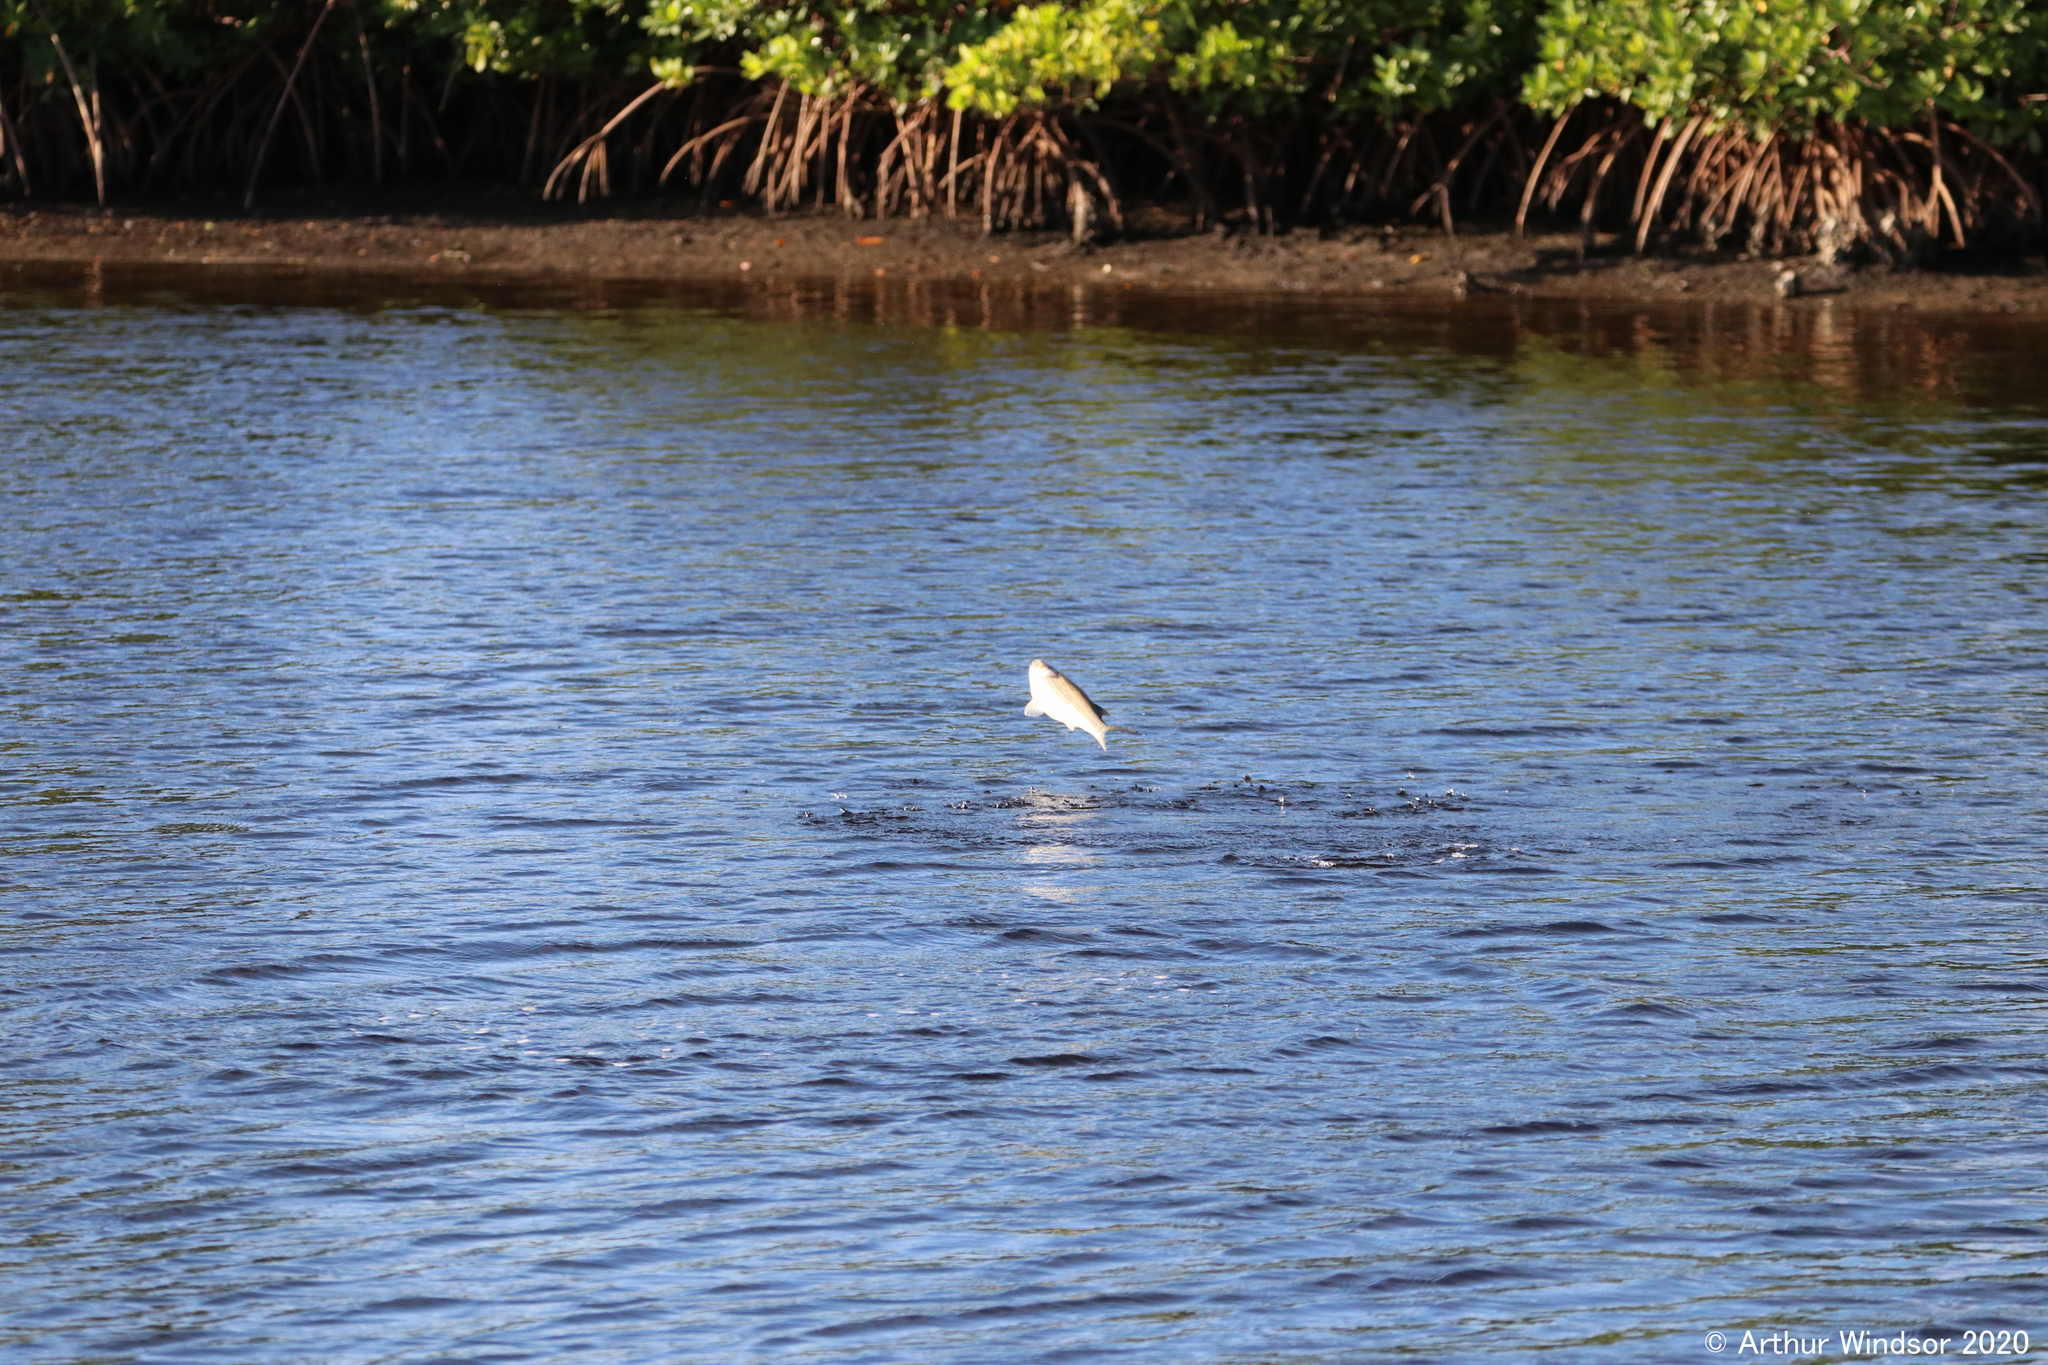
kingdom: Animalia
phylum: Chordata
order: Mugiliformes
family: Mugilidae
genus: Mugil
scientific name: Mugil cephalus
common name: Grey mullet
